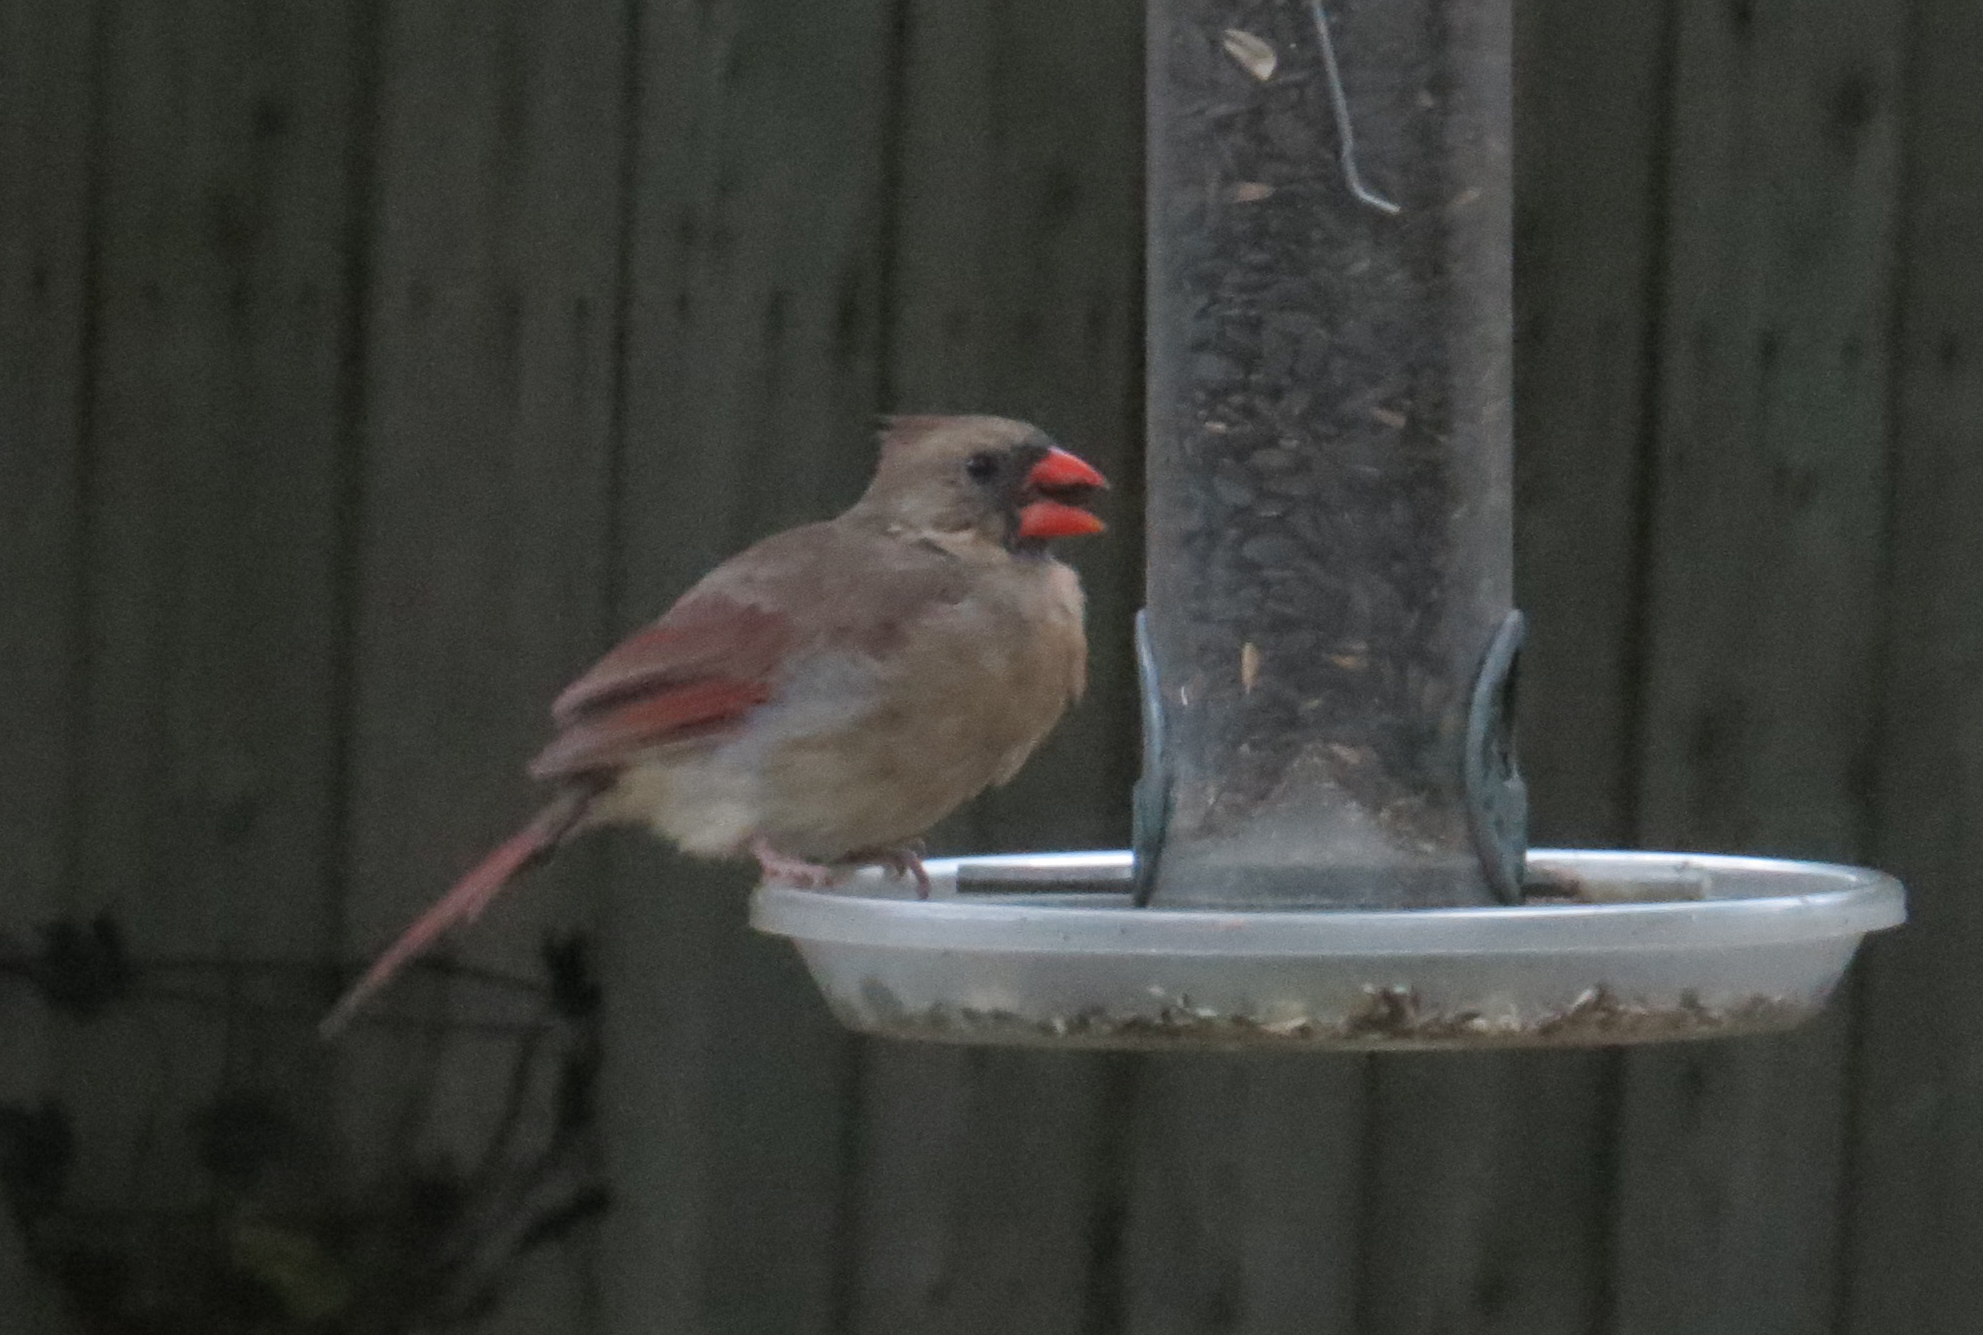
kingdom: Animalia
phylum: Chordata
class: Aves
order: Passeriformes
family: Cardinalidae
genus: Cardinalis
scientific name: Cardinalis cardinalis
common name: Northern cardinal
